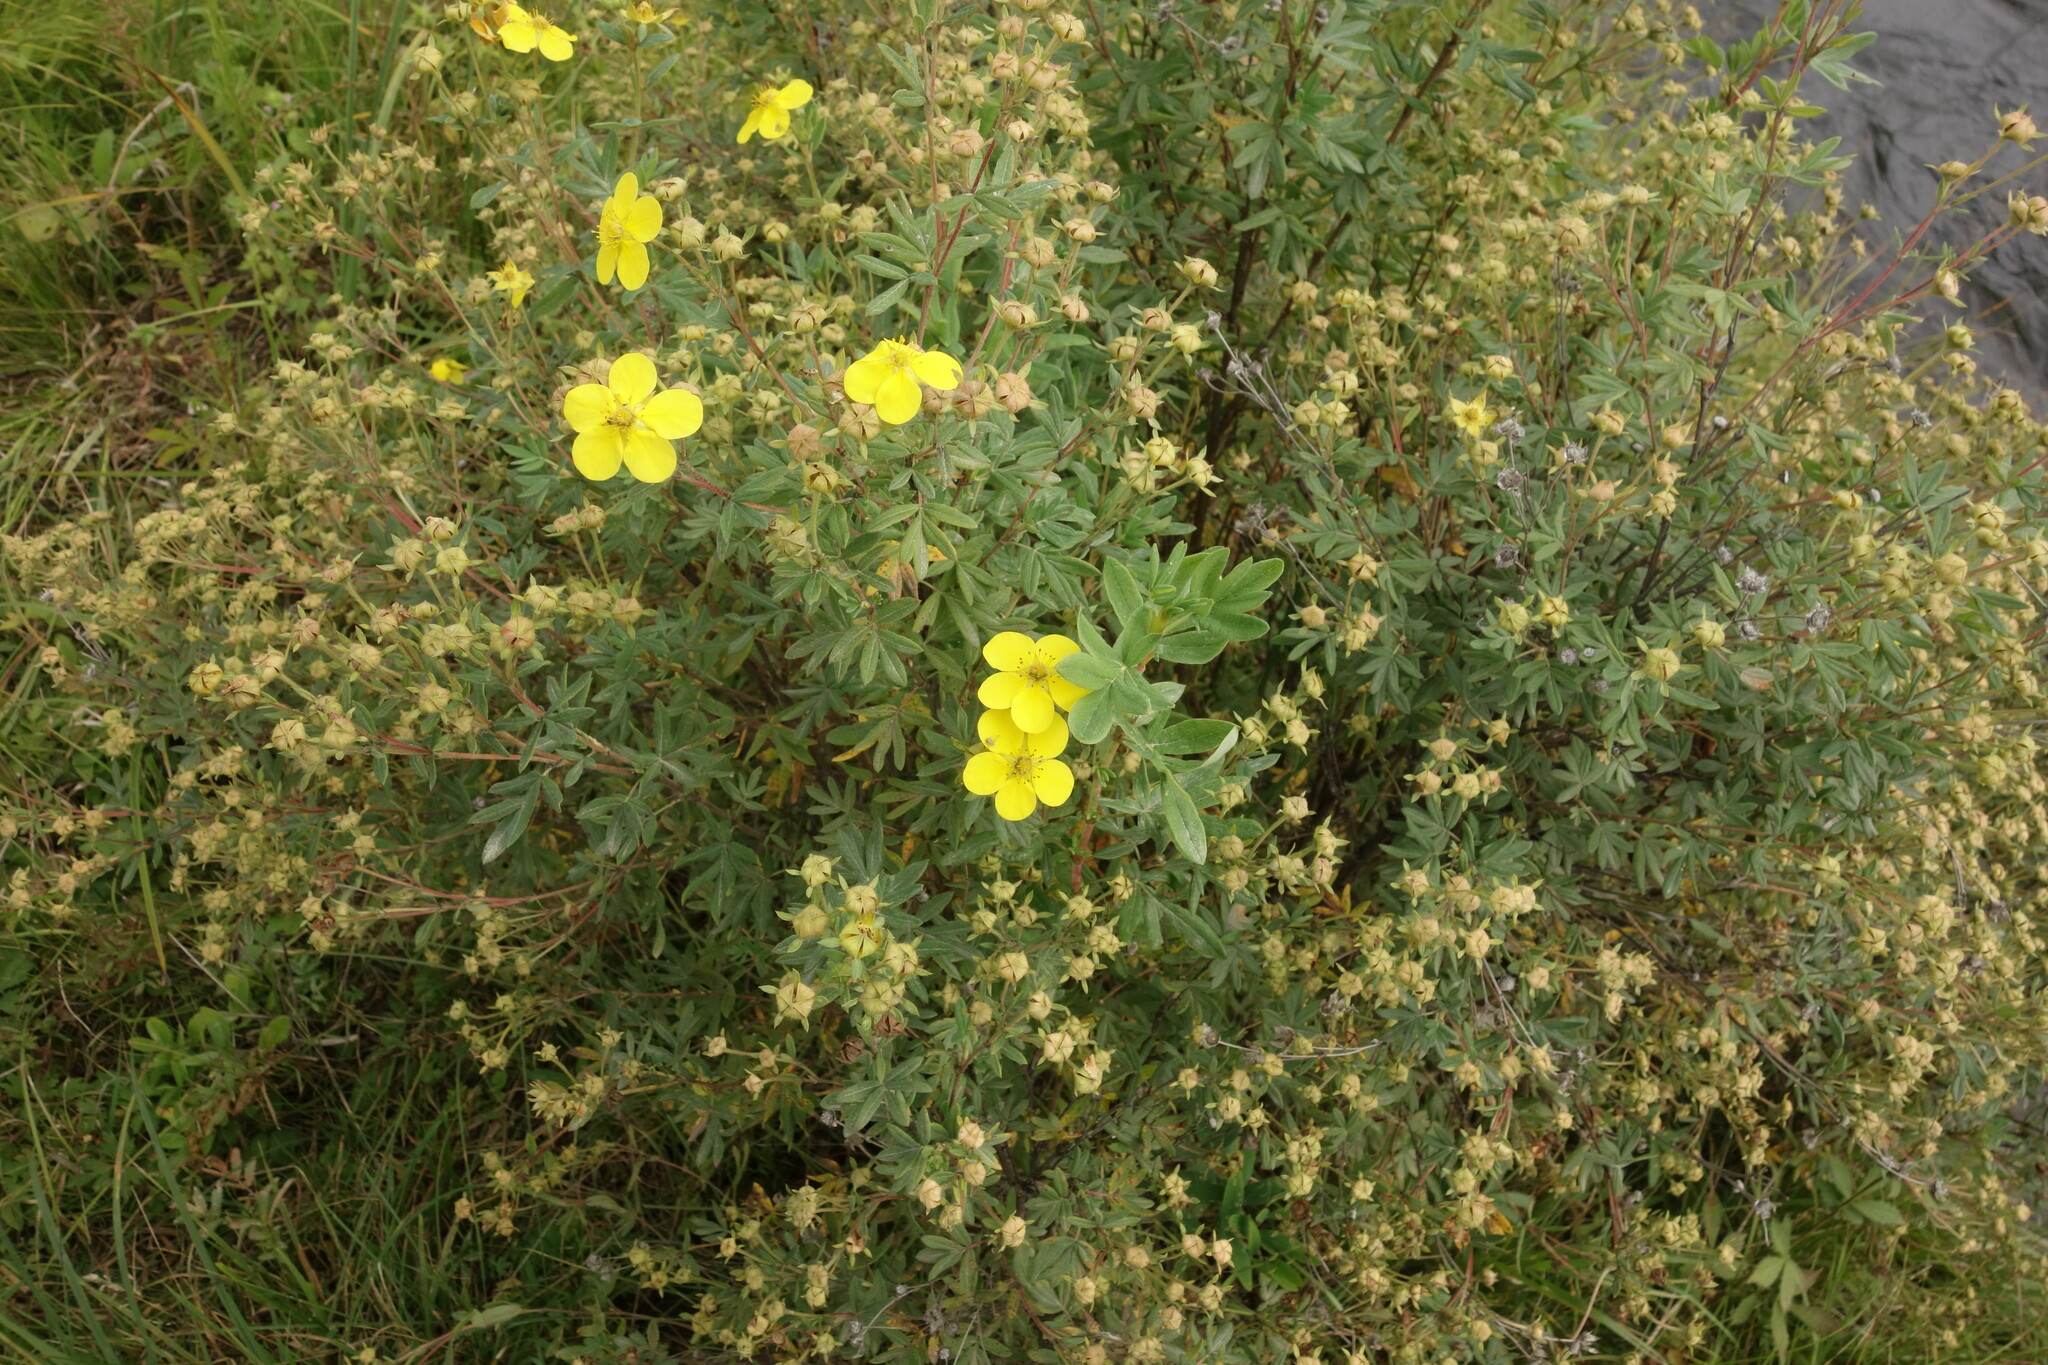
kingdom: Plantae
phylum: Tracheophyta
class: Magnoliopsida
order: Rosales
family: Rosaceae
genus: Dasiphora
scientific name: Dasiphora fruticosa
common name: Shrubby cinquefoil
